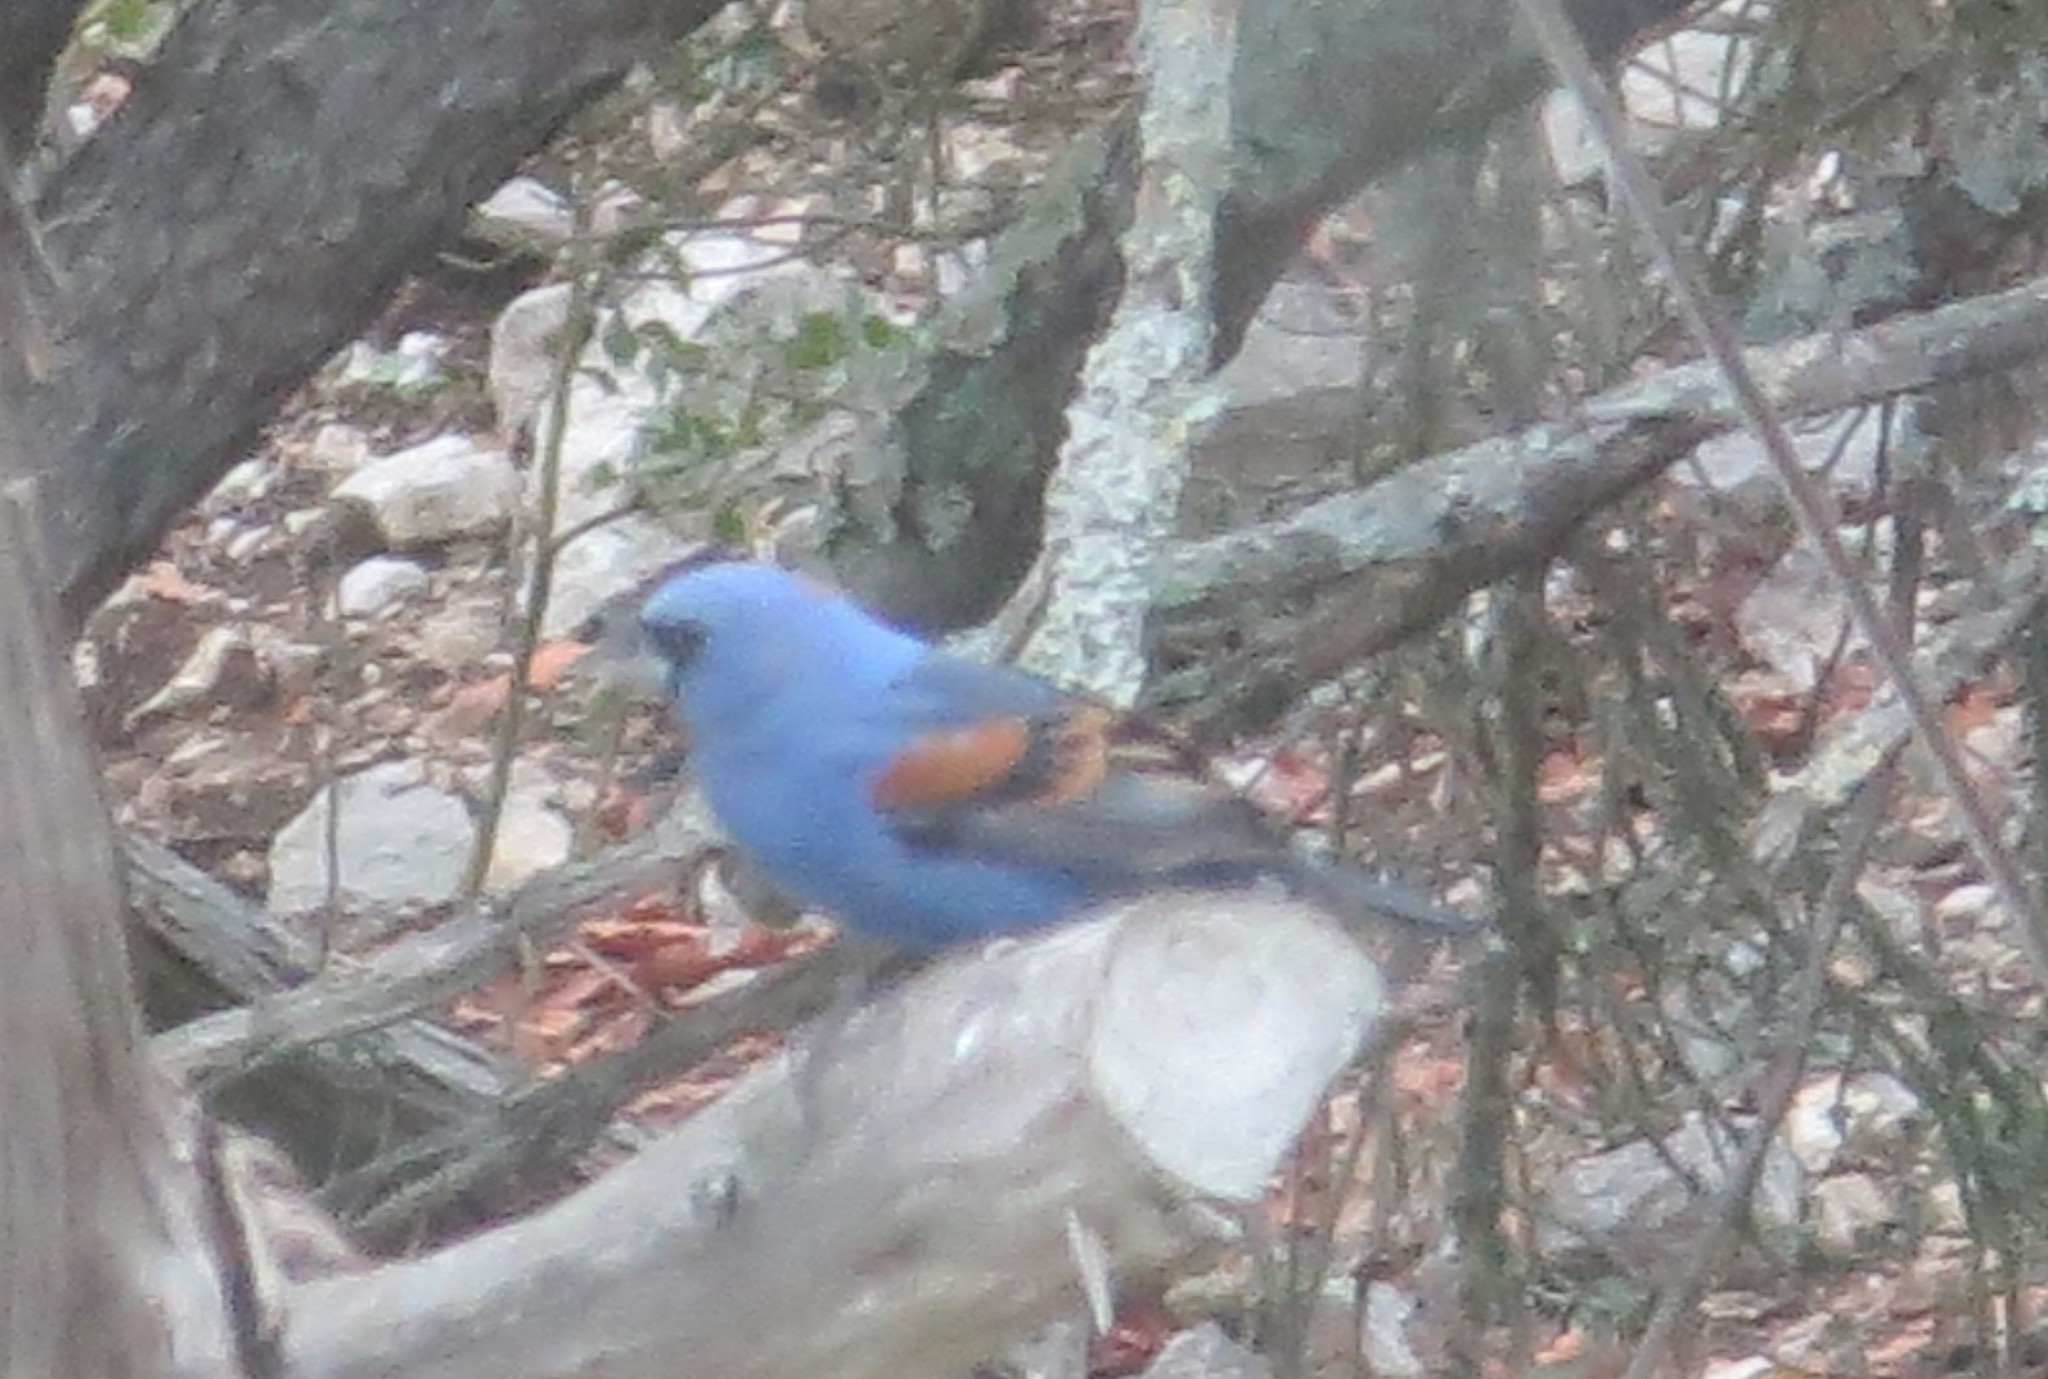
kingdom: Animalia
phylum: Chordata
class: Aves
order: Passeriformes
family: Cardinalidae
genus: Passerina
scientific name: Passerina caerulea
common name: Blue grosbeak
